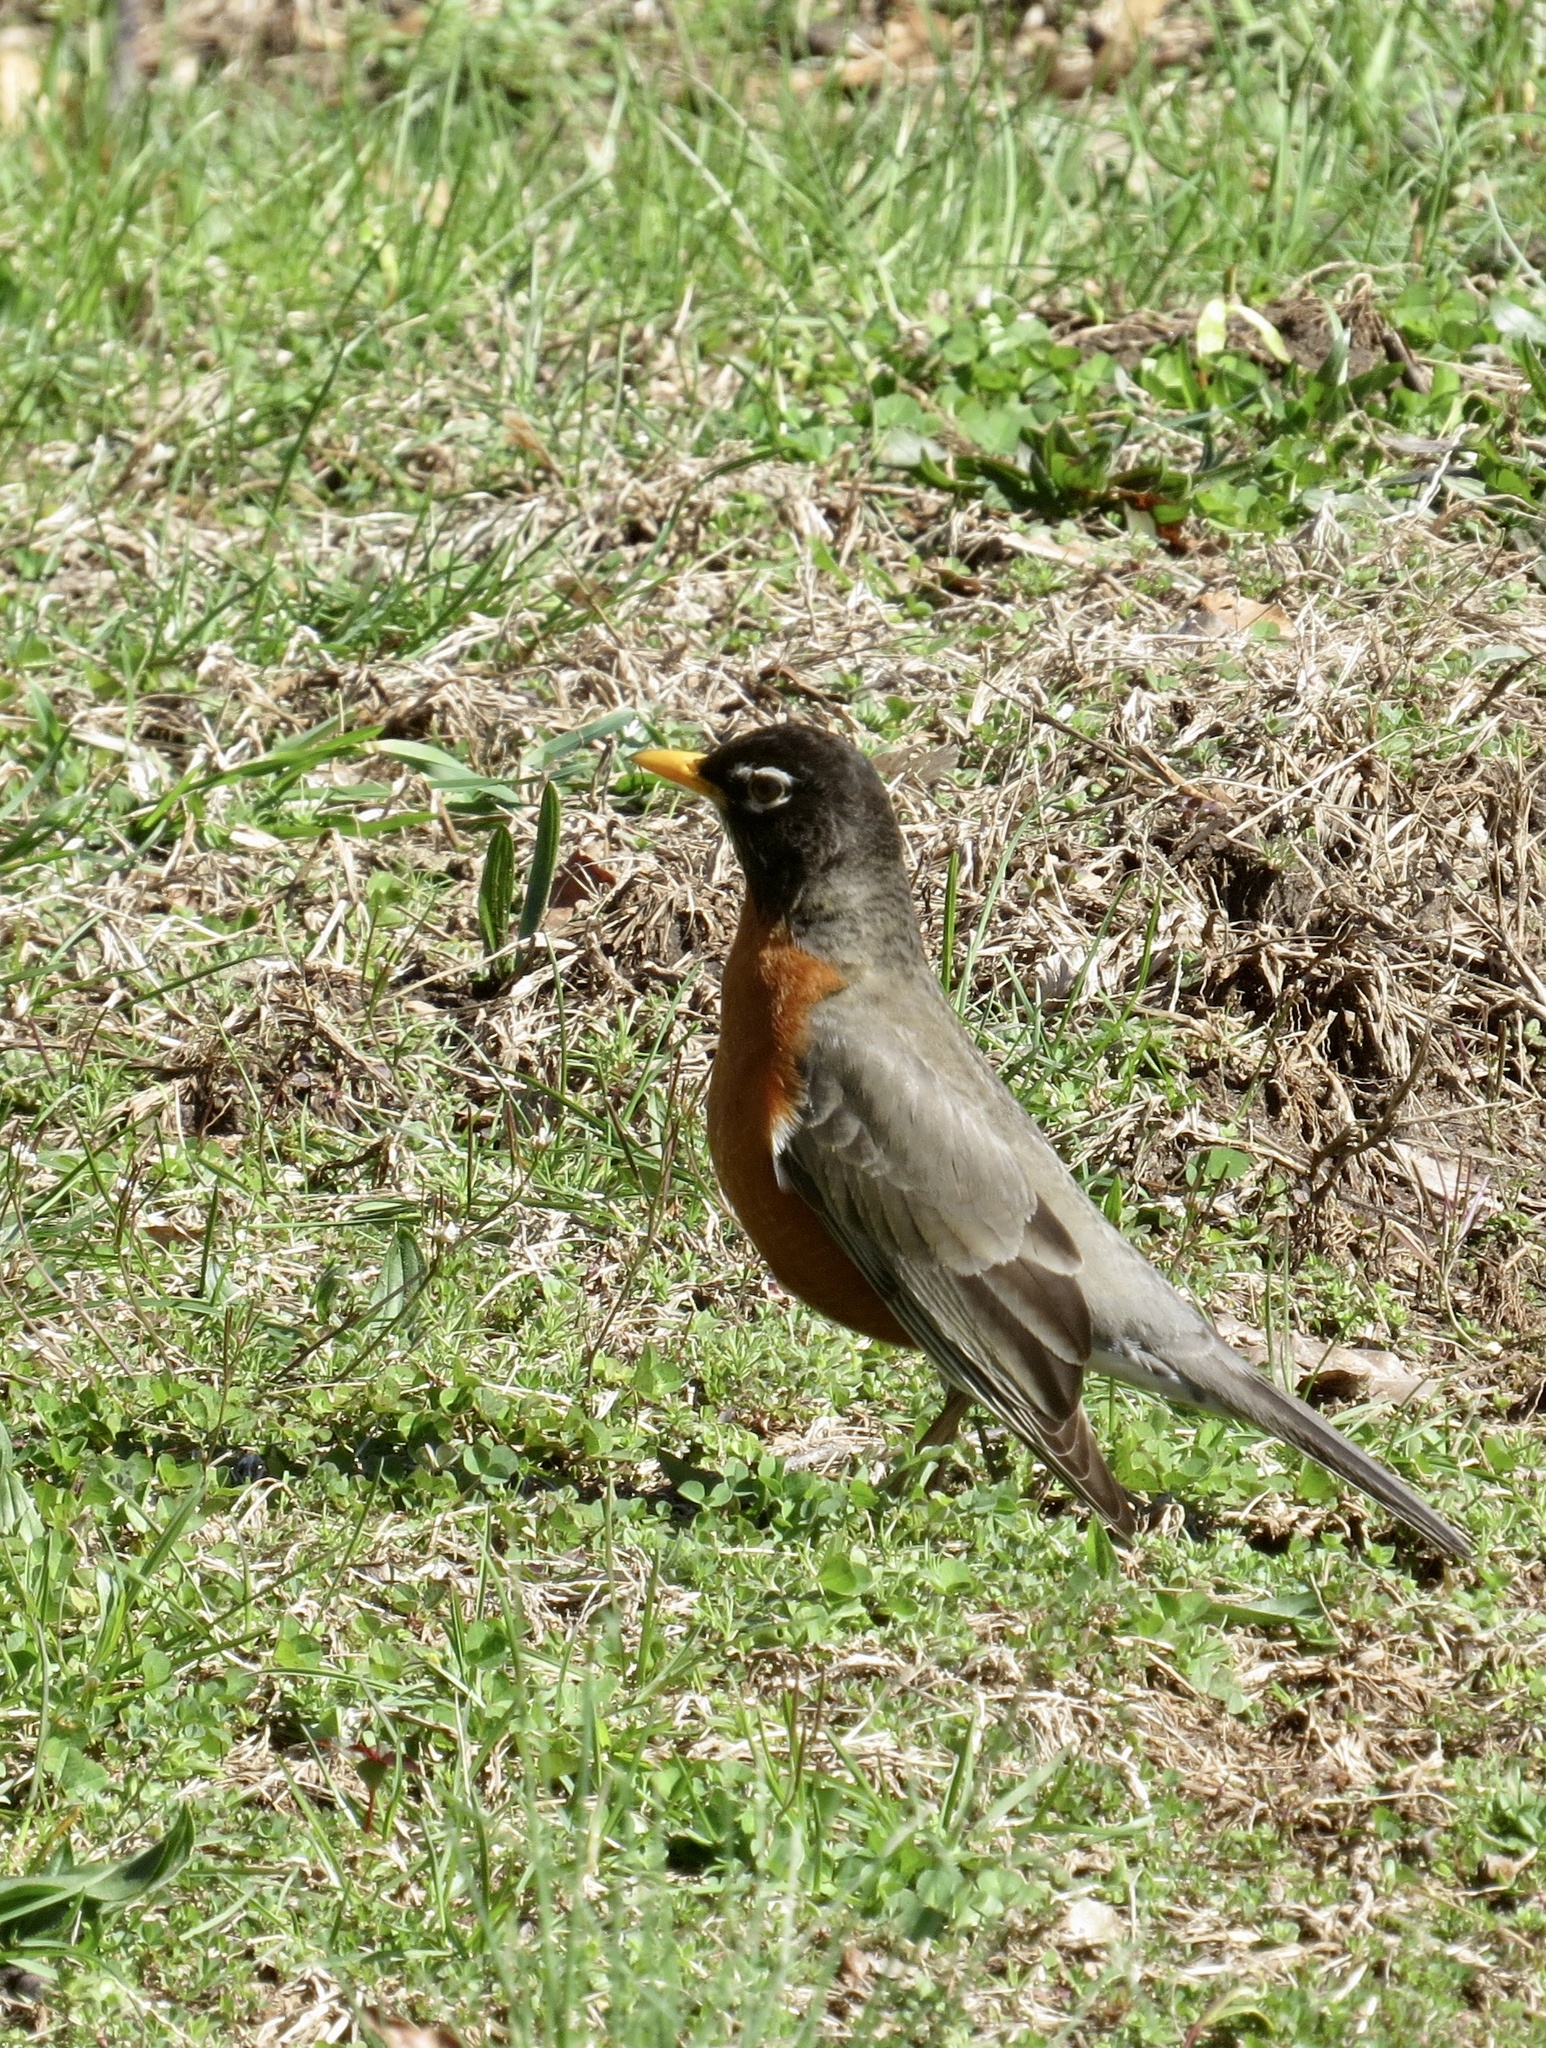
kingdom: Animalia
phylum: Chordata
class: Aves
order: Passeriformes
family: Turdidae
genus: Turdus
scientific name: Turdus migratorius
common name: American robin
